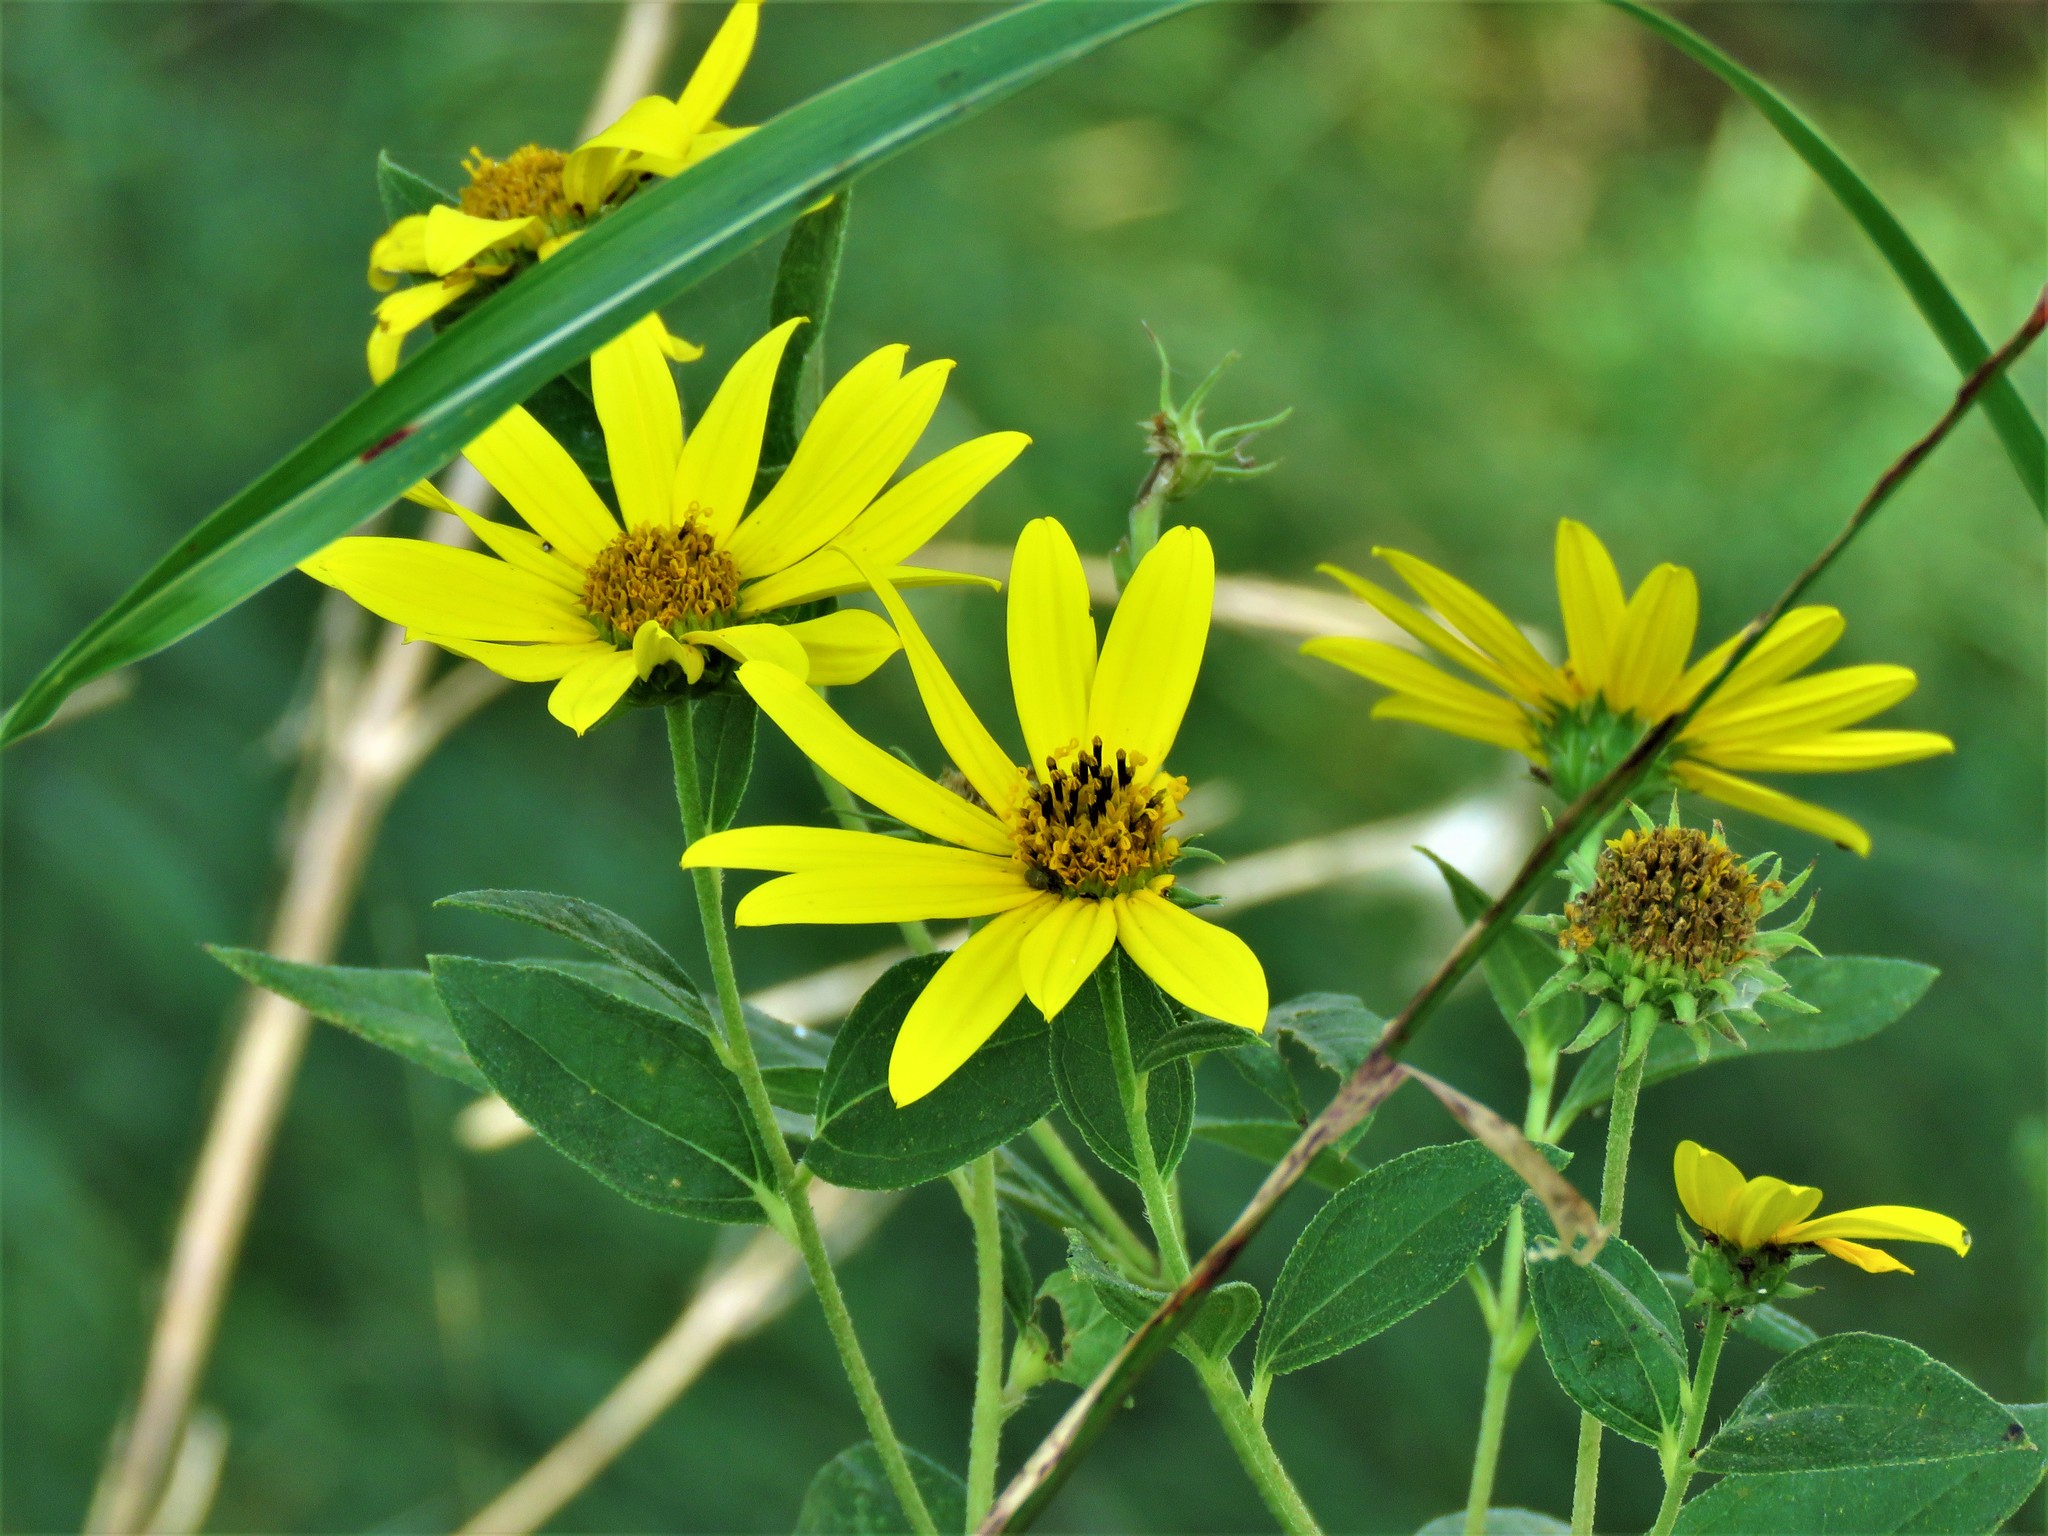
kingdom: Plantae
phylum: Tracheophyta
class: Magnoliopsida
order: Asterales
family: Asteraceae
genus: Helianthus
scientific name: Helianthus tuberosus
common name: Jerusalem artichoke
